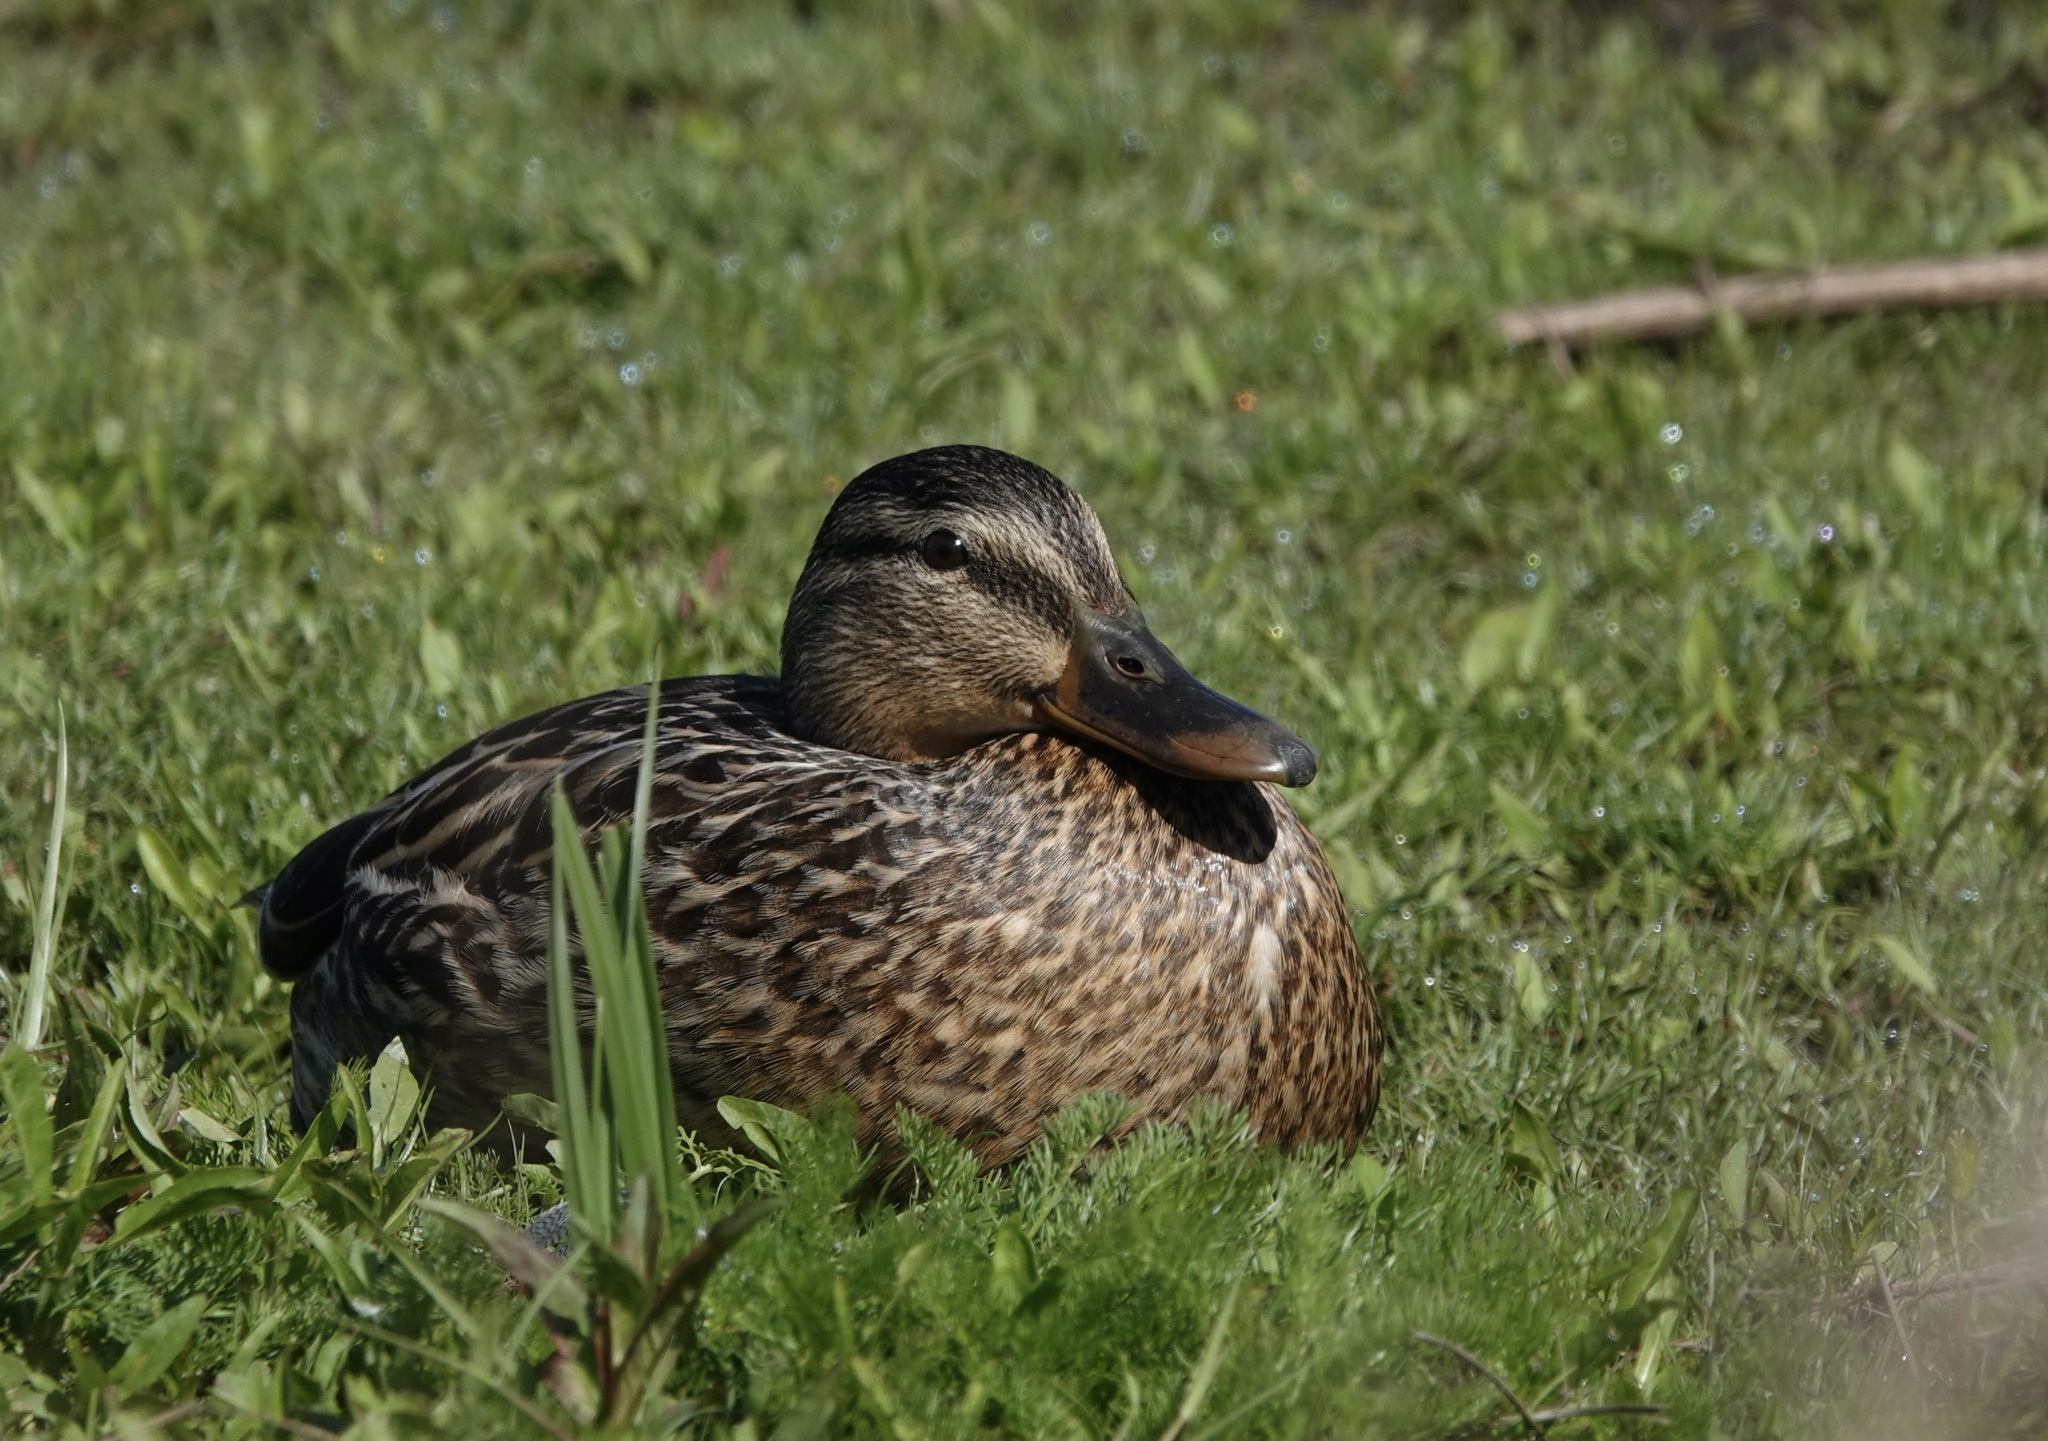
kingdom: Animalia
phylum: Chordata
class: Aves
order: Anseriformes
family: Anatidae
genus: Anas
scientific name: Anas platyrhynchos
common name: Mallard
